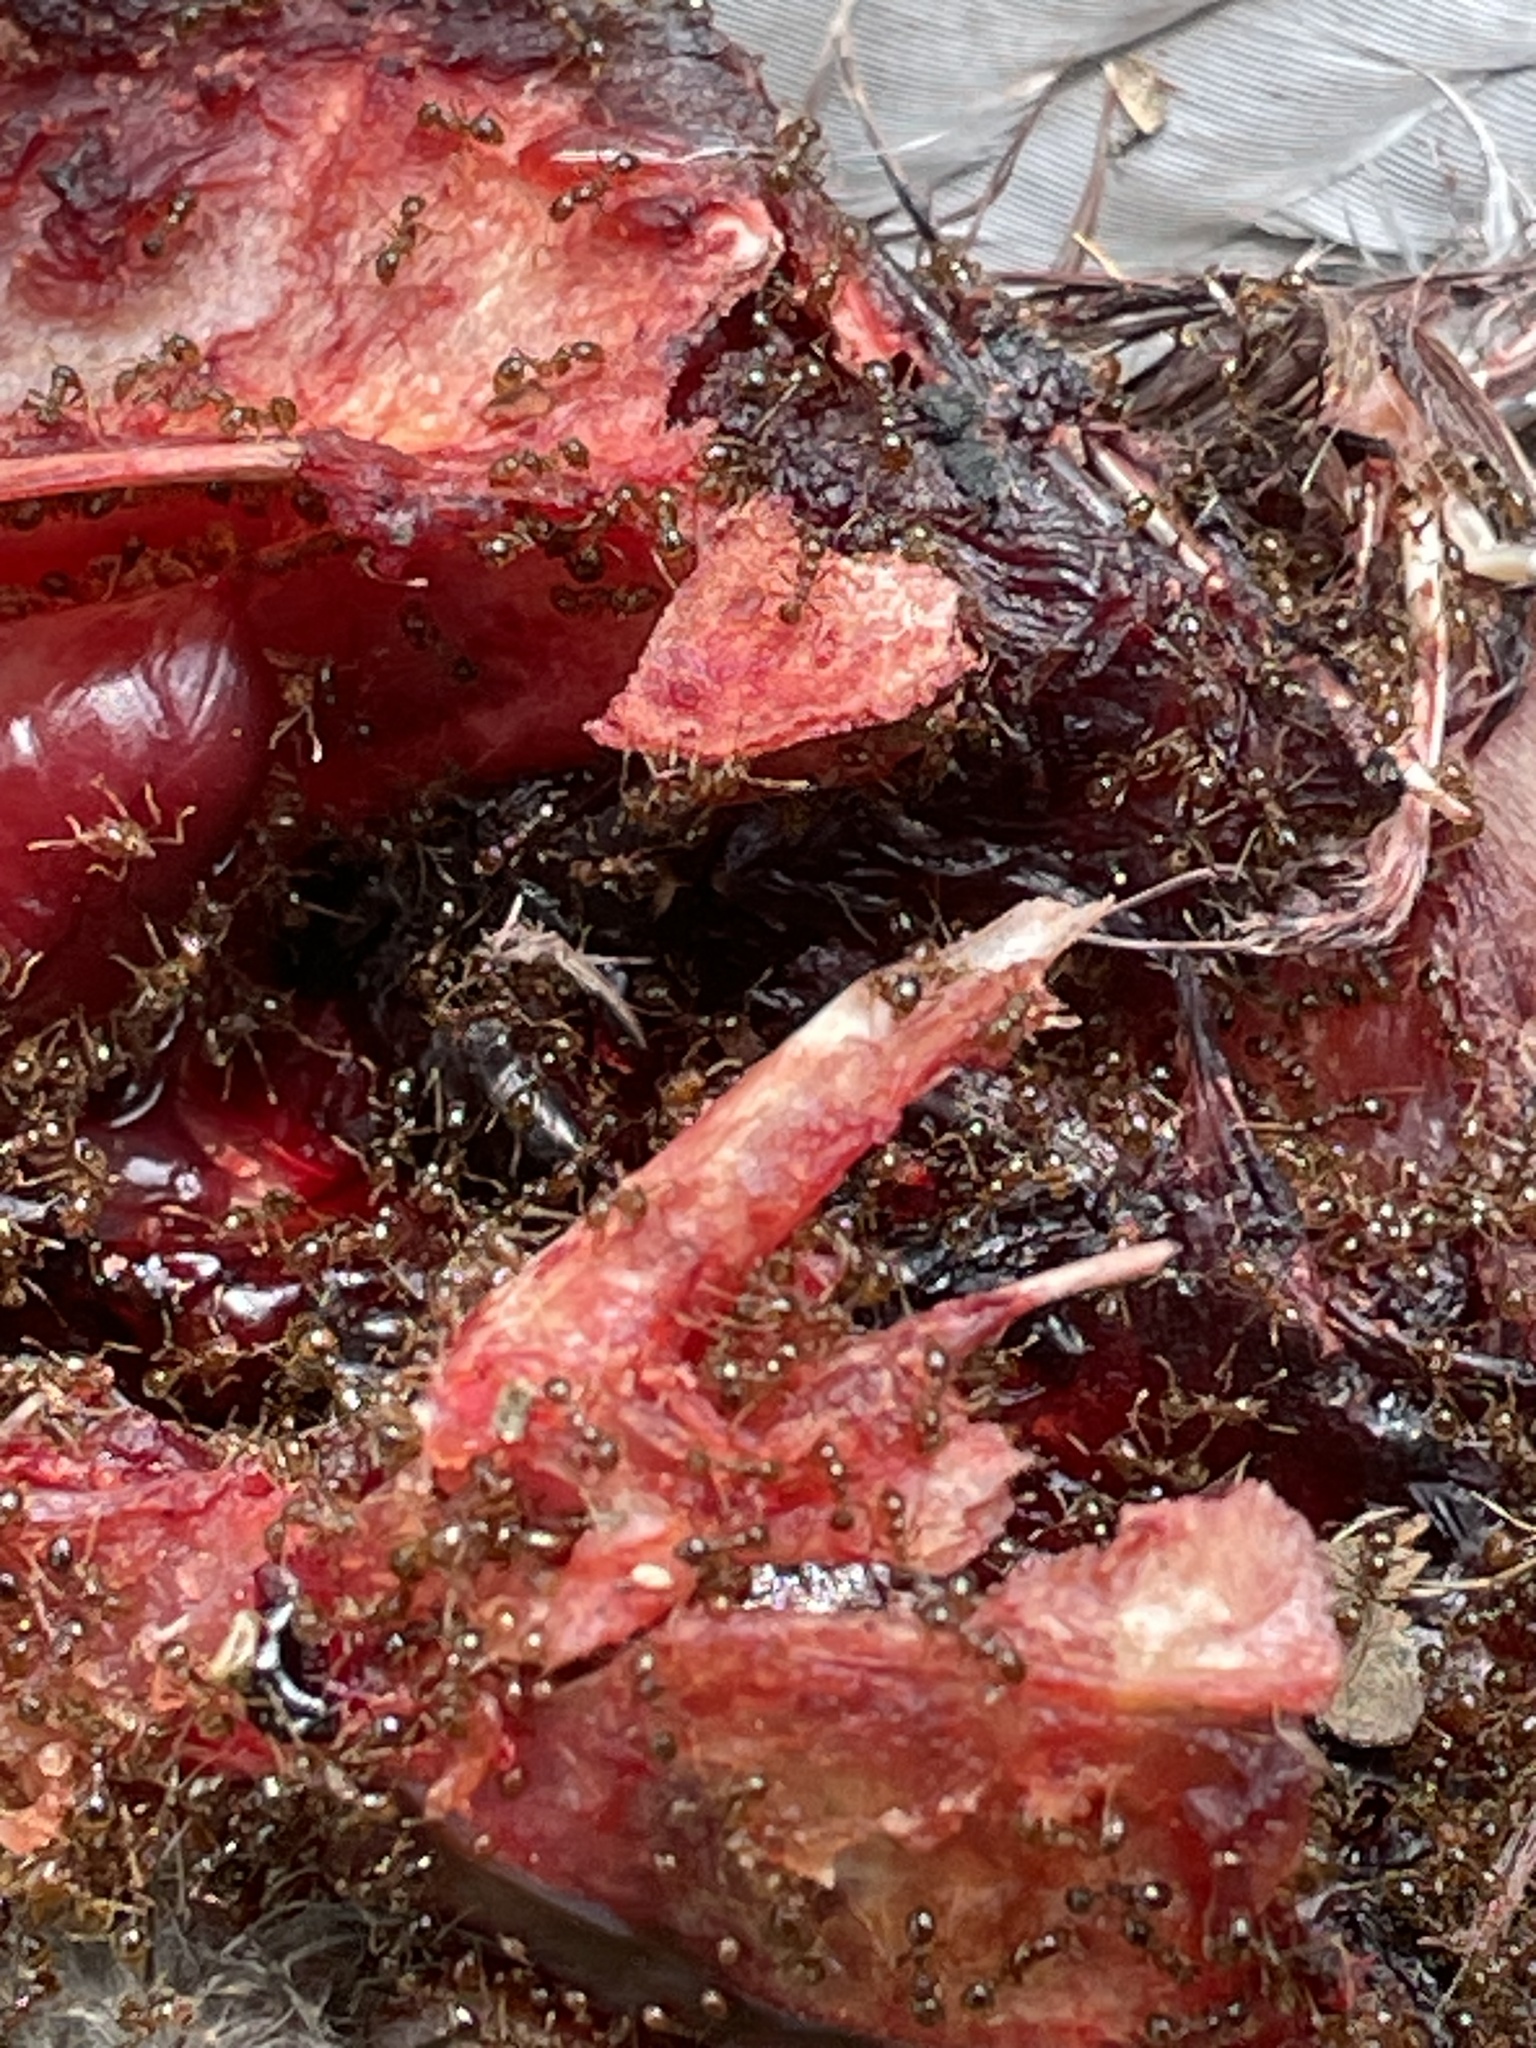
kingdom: Animalia
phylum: Chordata
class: Aves
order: Columbiformes
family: Columbidae
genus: Zenaida
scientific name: Zenaida meloda
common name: West peruvian dove
